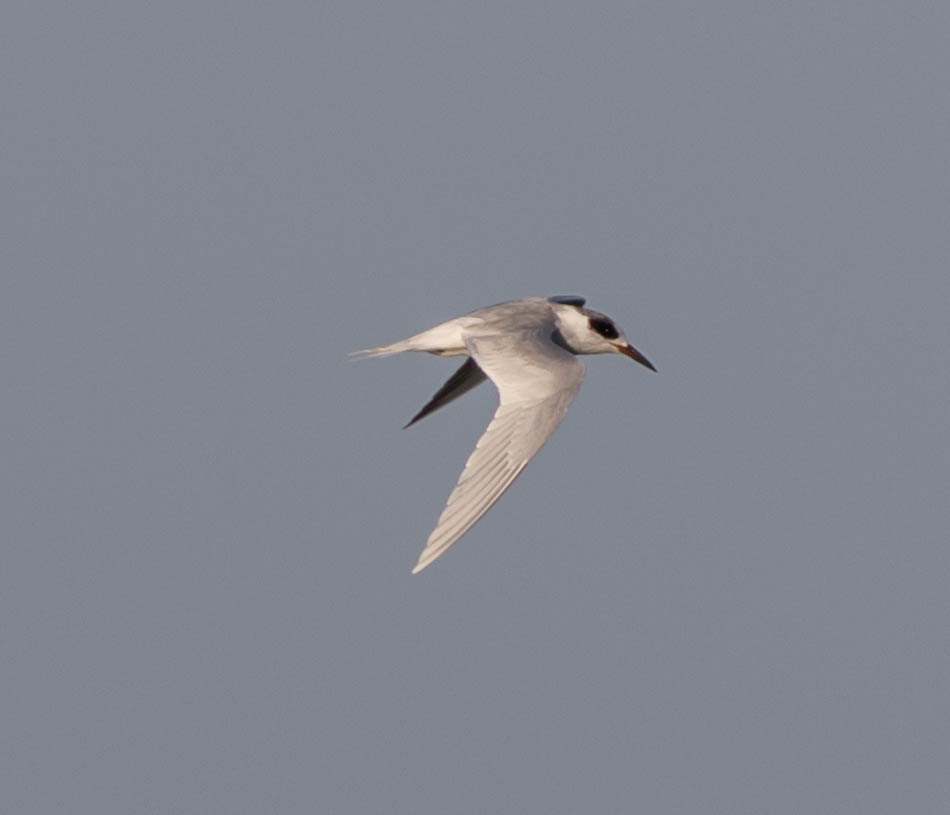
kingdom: Animalia
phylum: Chordata
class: Aves
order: Charadriiformes
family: Laridae
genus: Sterna
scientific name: Sterna forsteri
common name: Forster's tern
